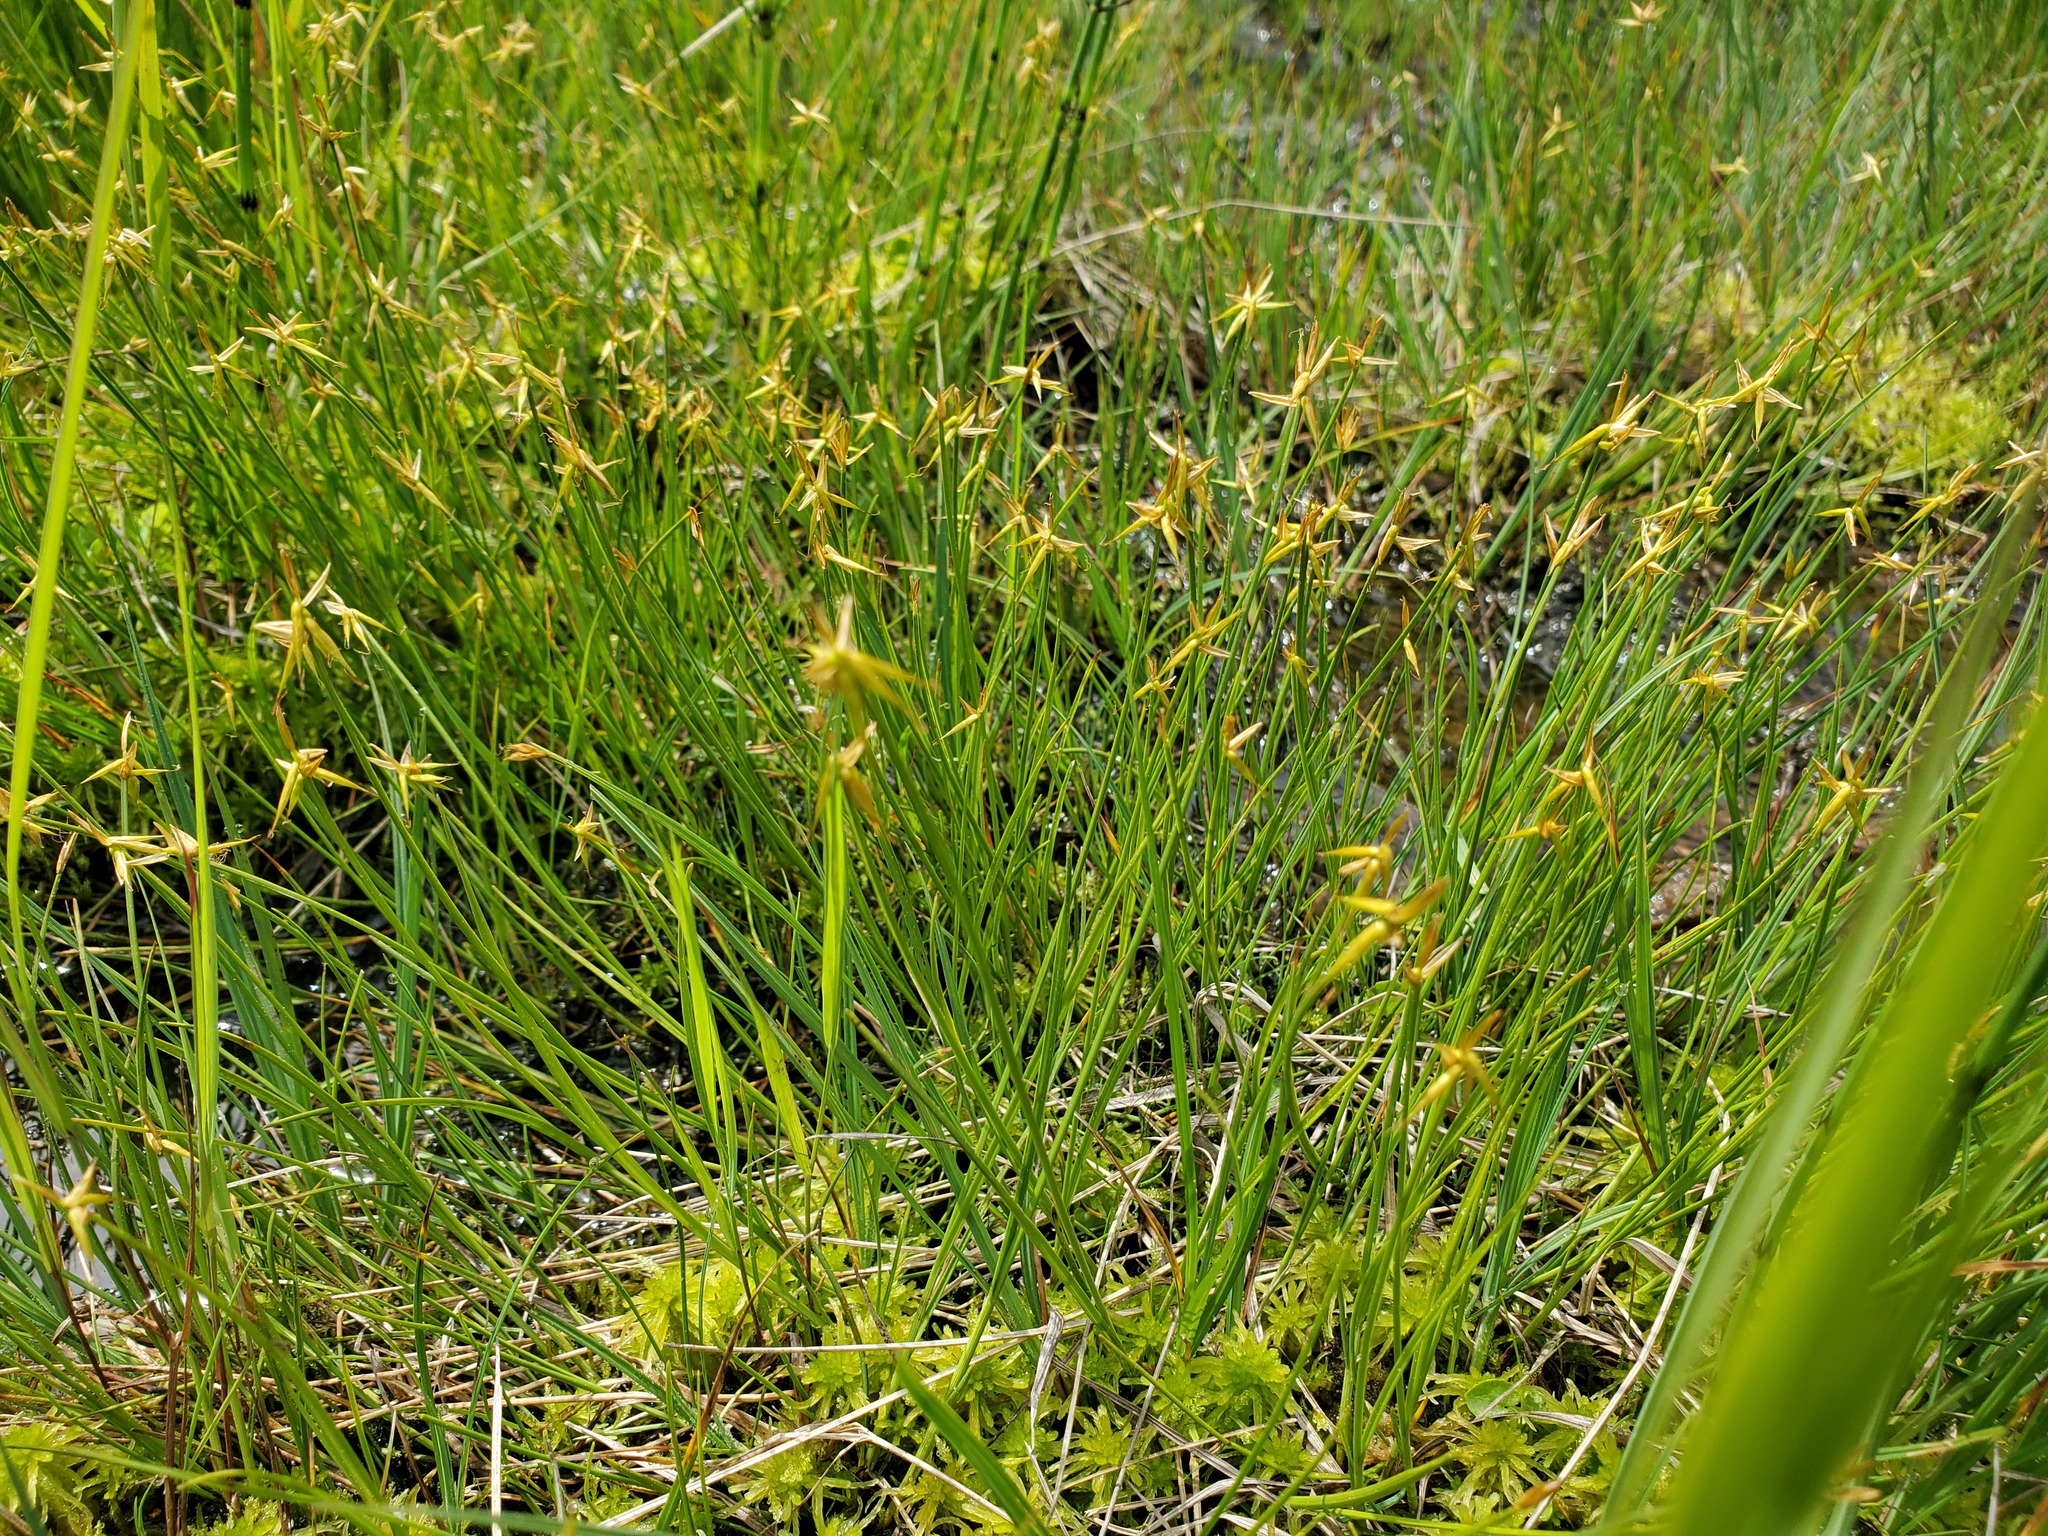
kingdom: Plantae
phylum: Tracheophyta
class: Liliopsida
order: Poales
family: Cyperaceae
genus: Carex
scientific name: Carex pauciflora
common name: Few-flowered sedge
